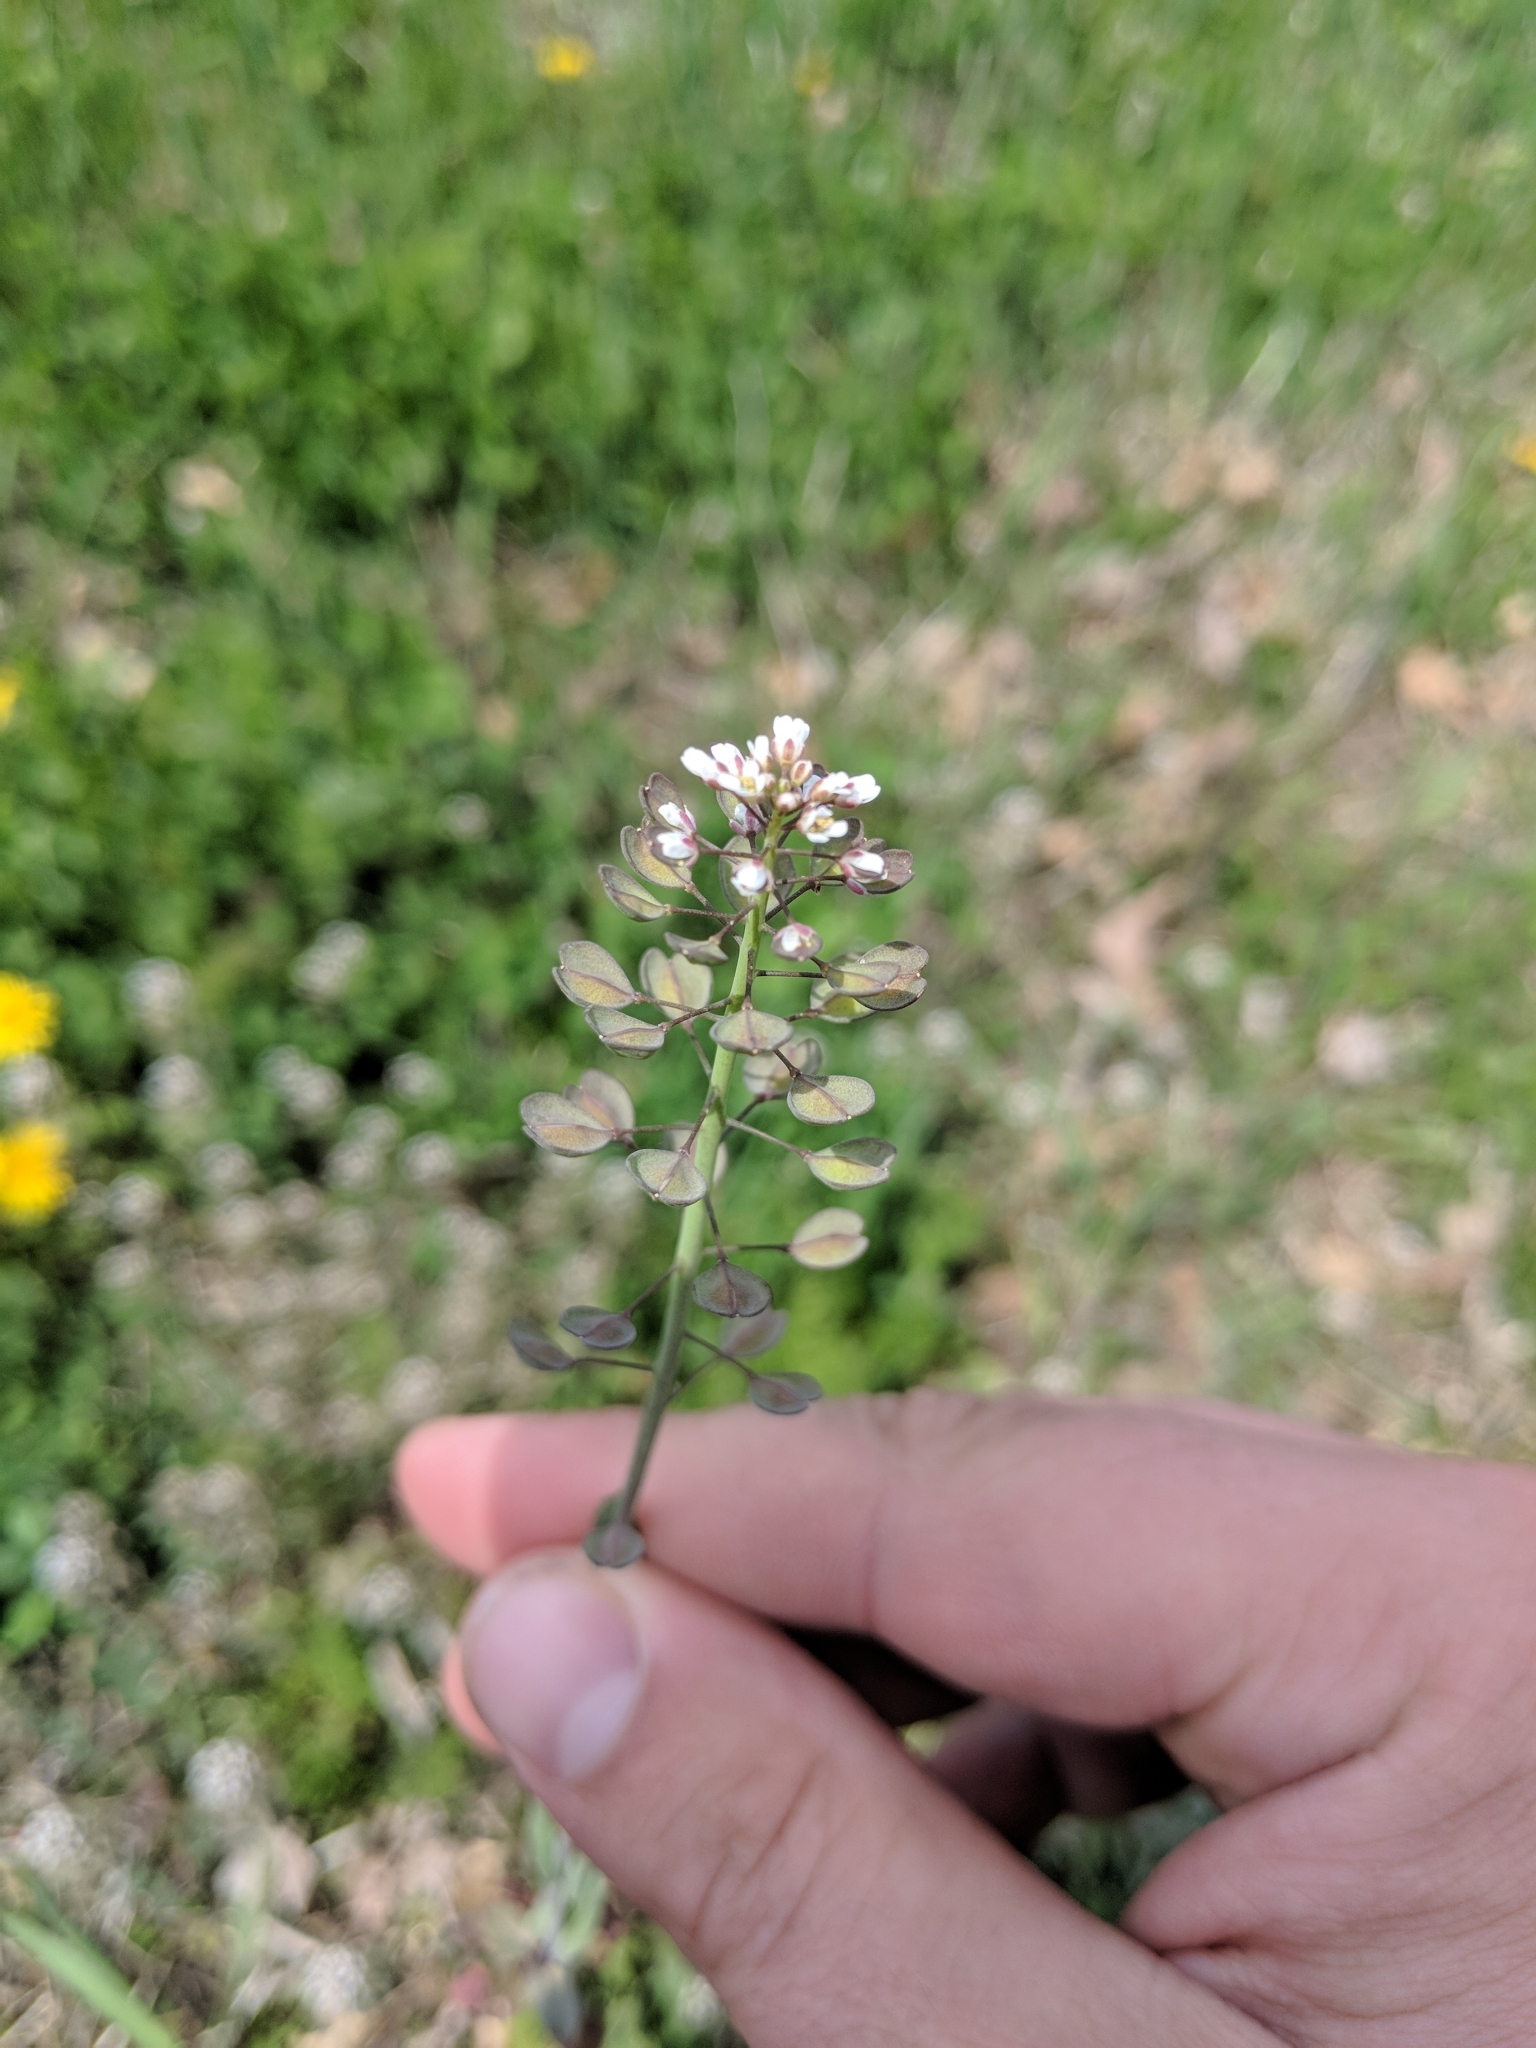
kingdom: Plantae
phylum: Tracheophyta
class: Magnoliopsida
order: Brassicales
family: Brassicaceae
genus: Capsella
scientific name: Capsella bursa-pastoris
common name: Shepherd's purse
